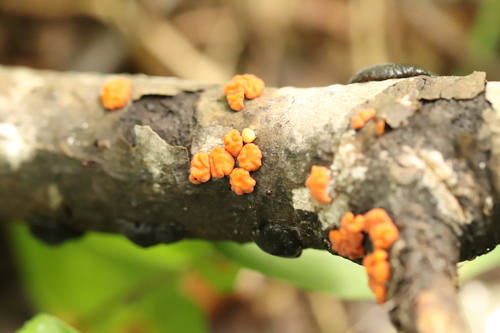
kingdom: Fungi
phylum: Basidiomycota
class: Agaricomycetes
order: Russulales
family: Peniophoraceae
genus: Peniophora
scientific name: Peniophora rufa
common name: Red tree brain fungus
